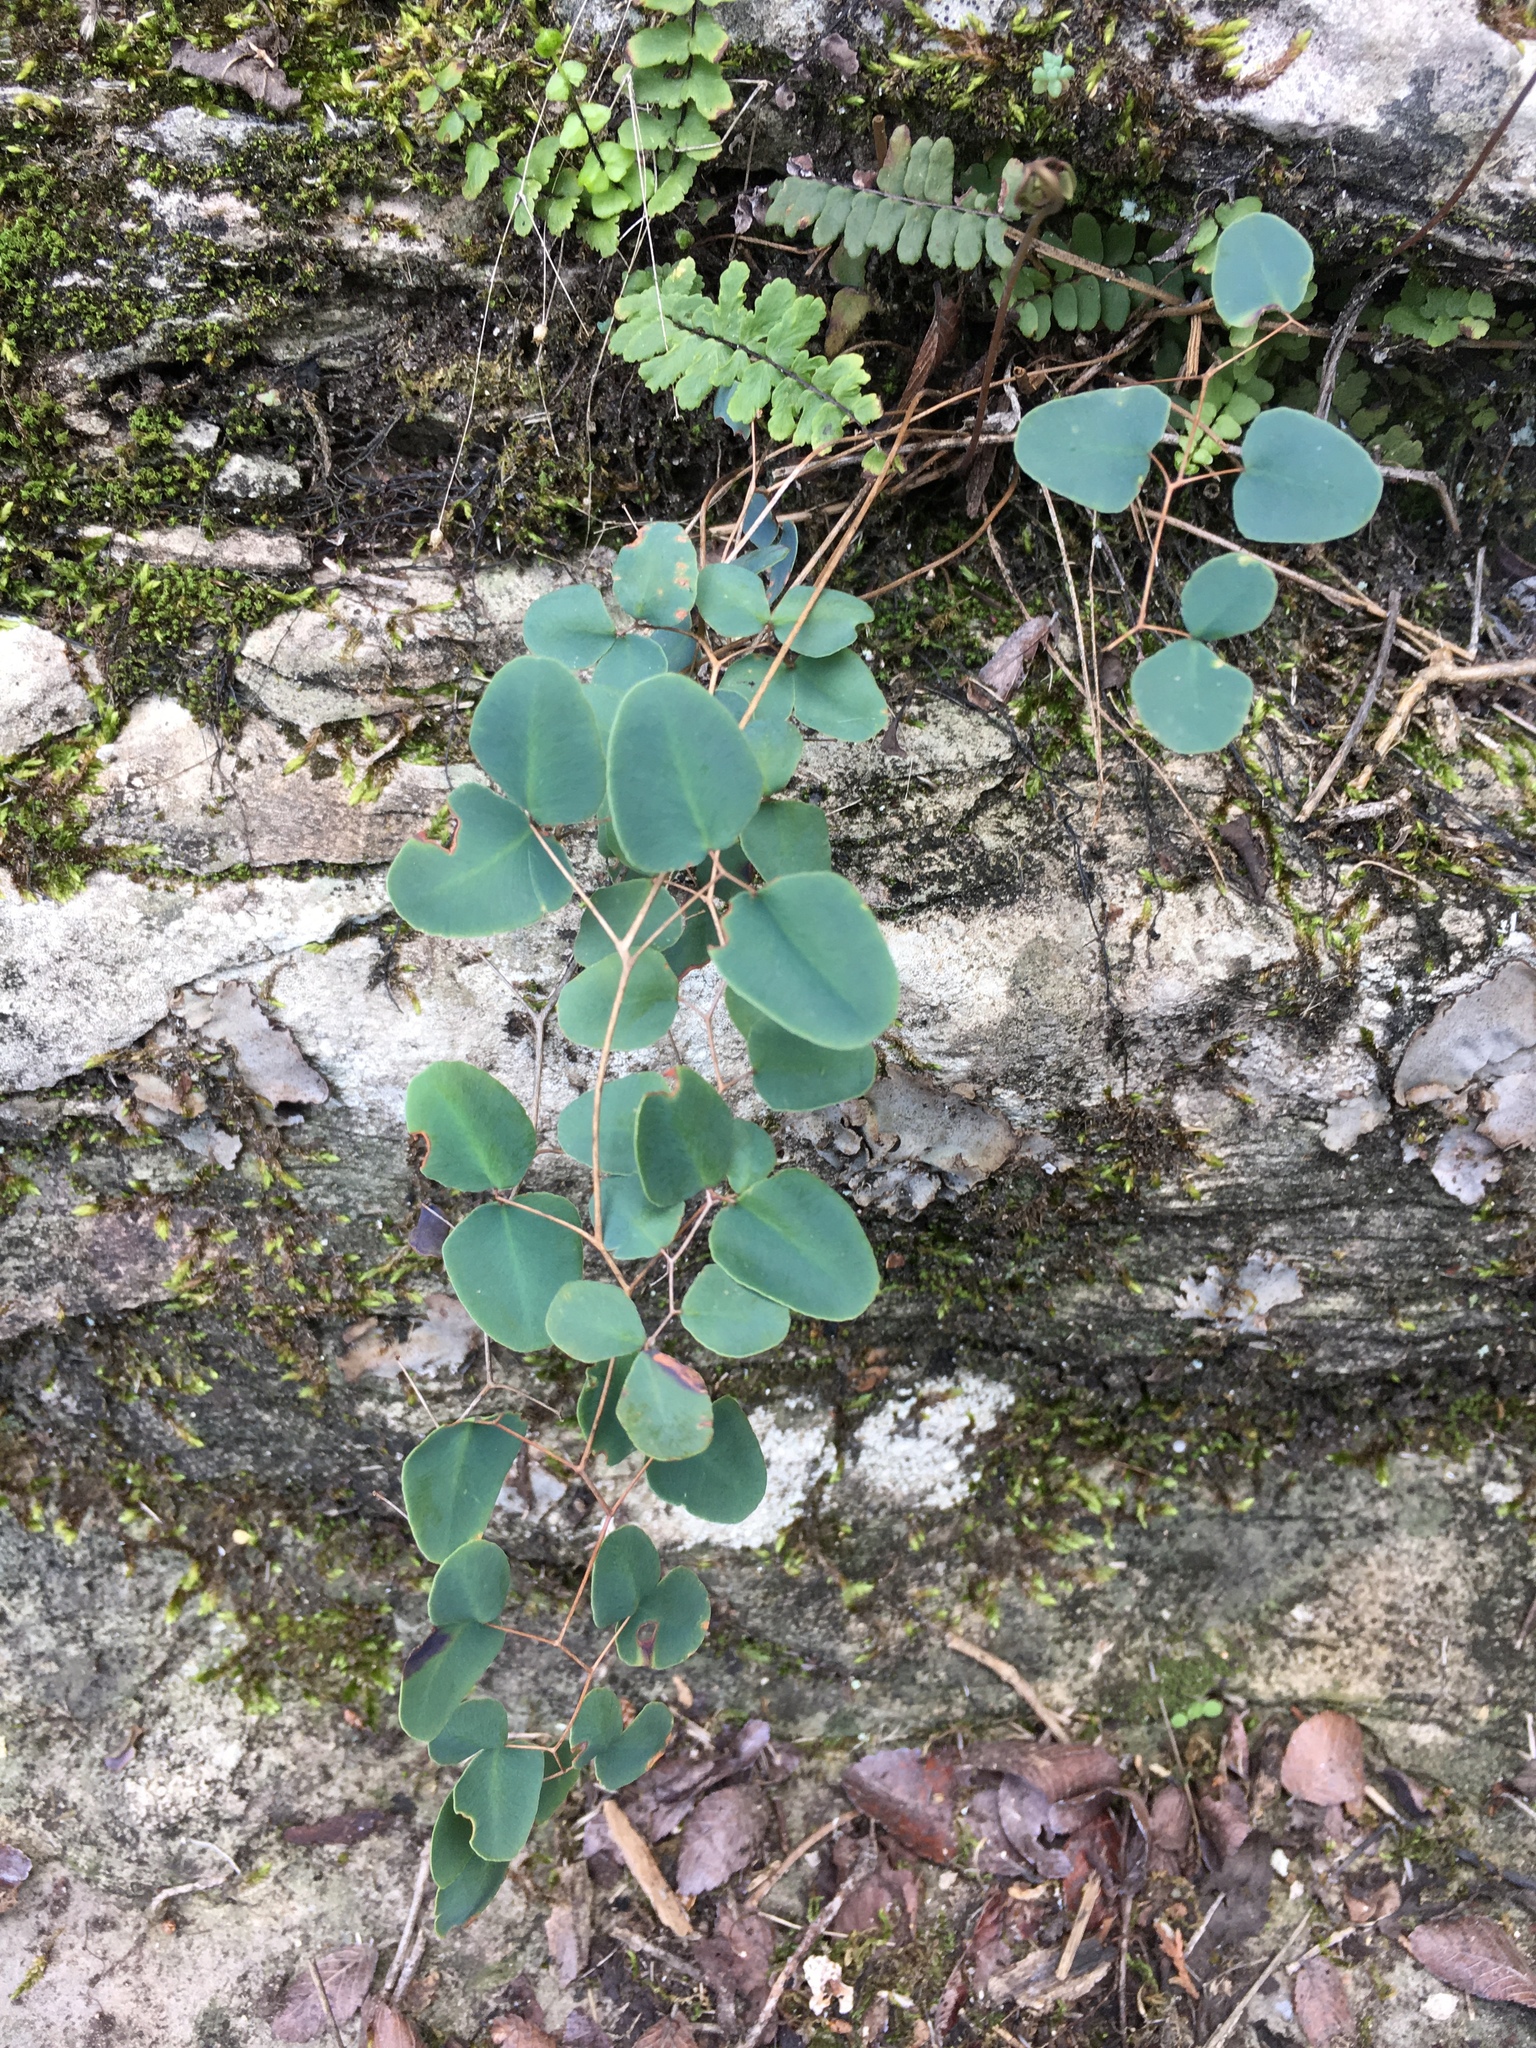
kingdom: Plantae
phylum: Tracheophyta
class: Polypodiopsida
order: Polypodiales
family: Pteridaceae
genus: Pellaea
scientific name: Pellaea ovata
